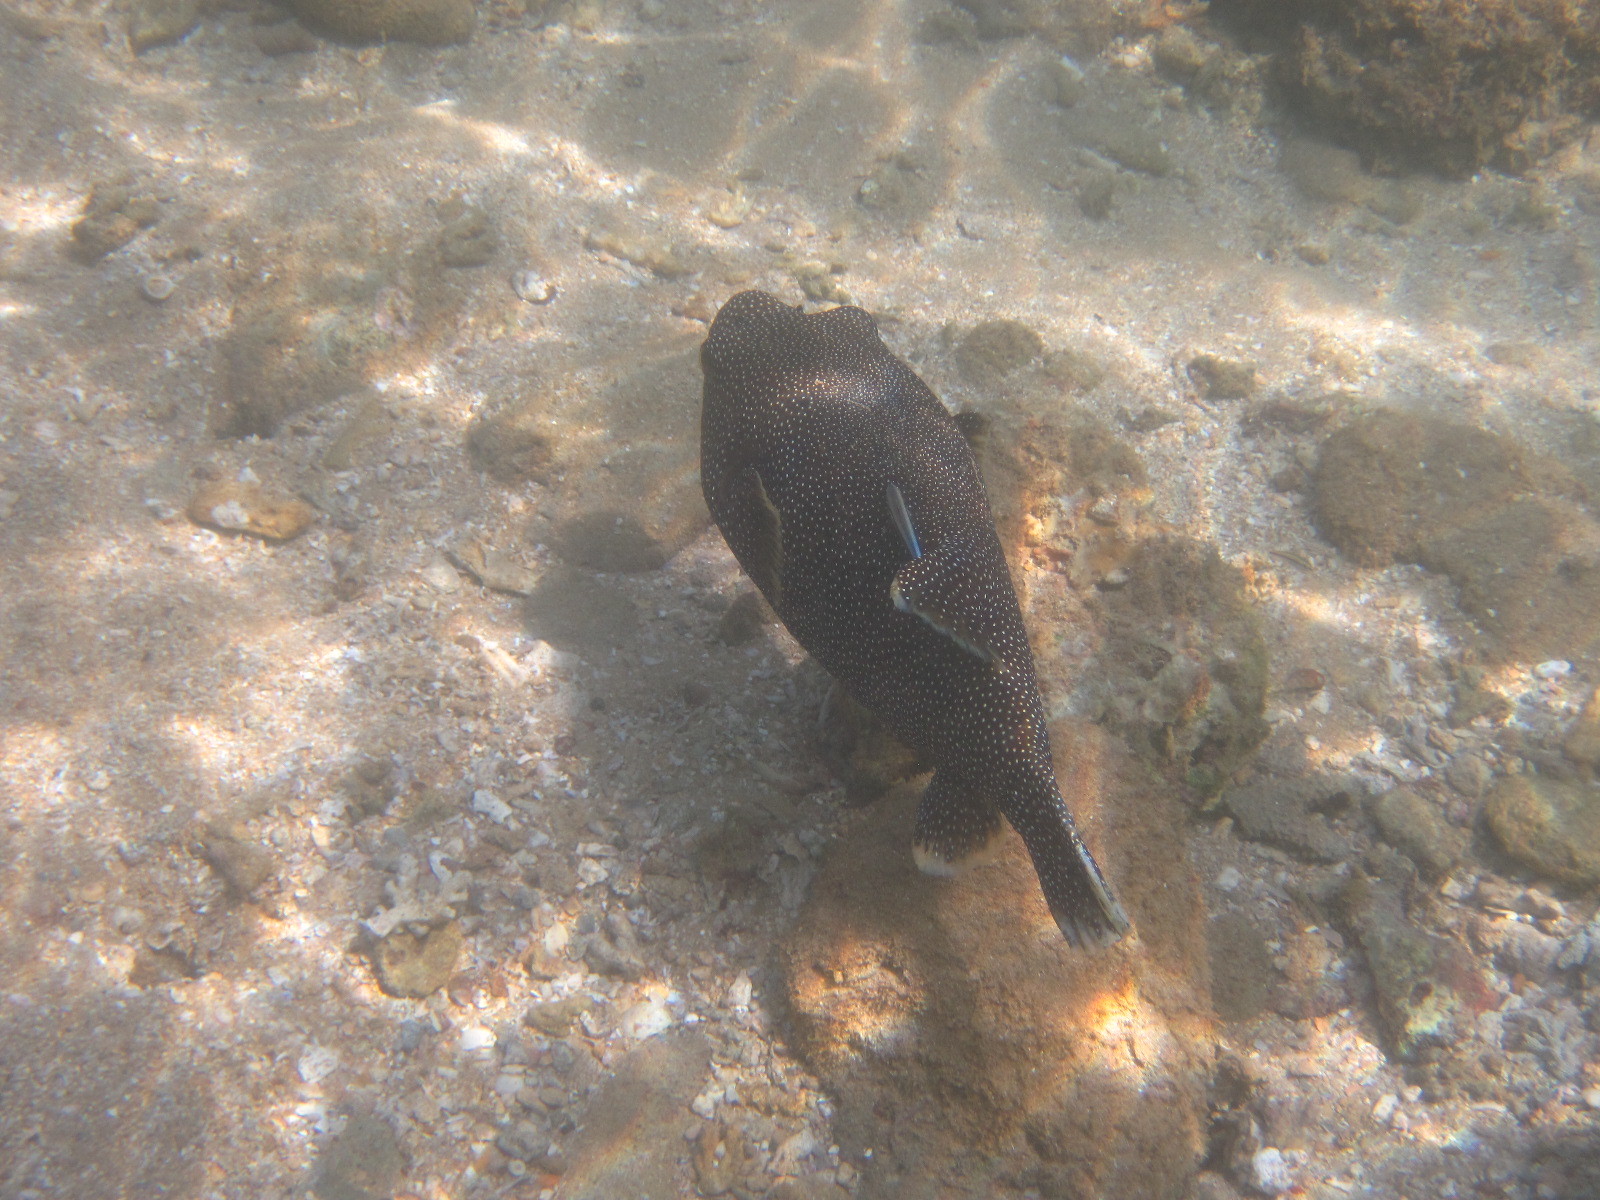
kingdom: Animalia
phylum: Chordata
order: Tetraodontiformes
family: Tetraodontidae
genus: Arothron
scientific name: Arothron meleagris
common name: Guinea-fowl pufferfish
